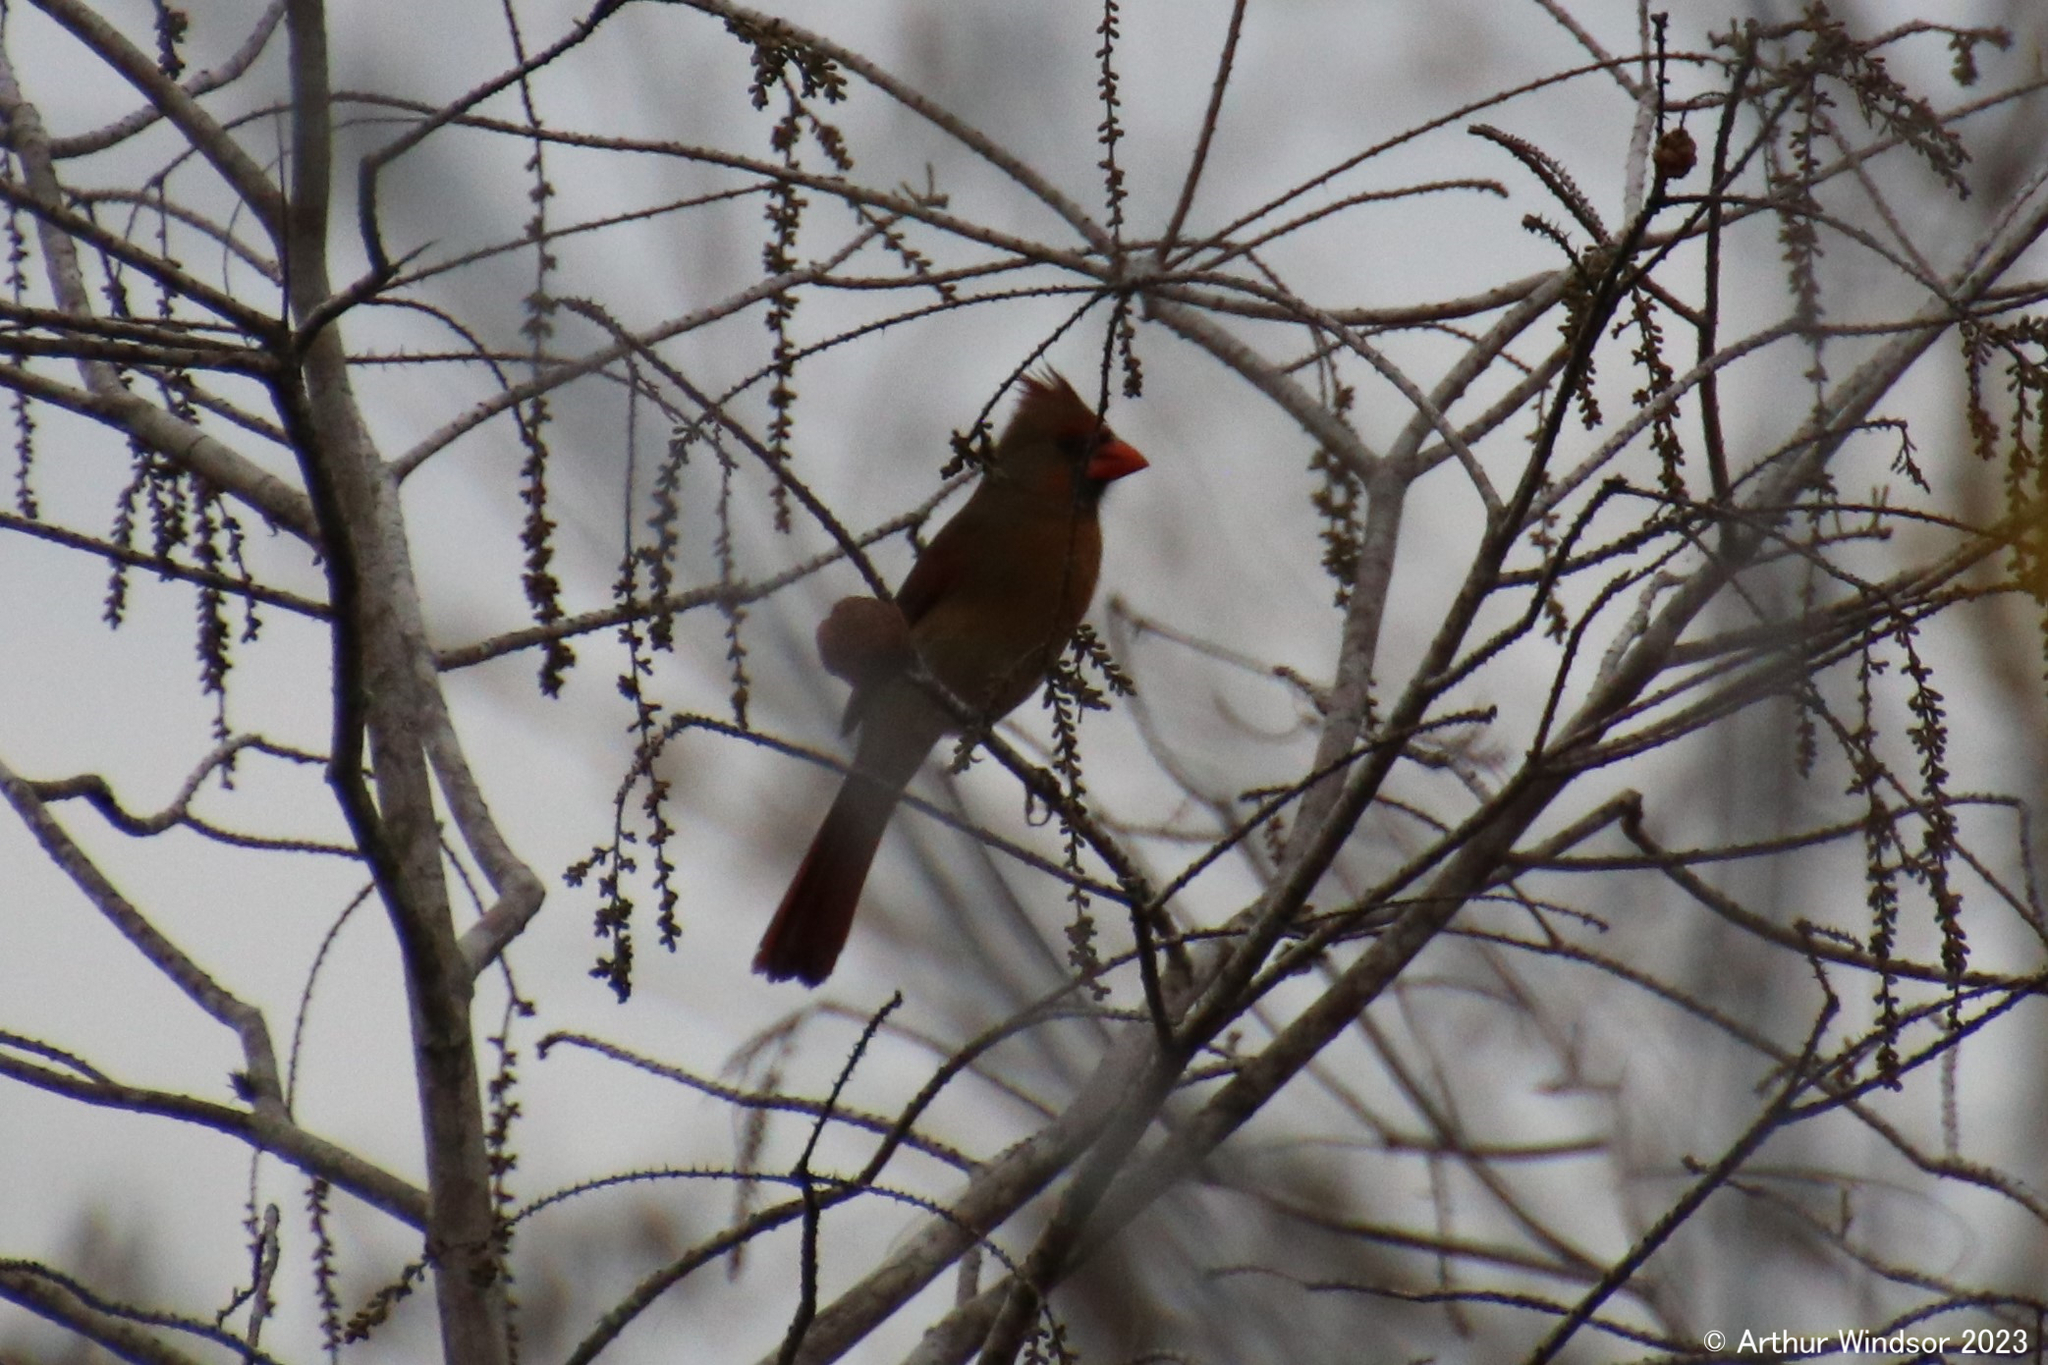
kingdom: Animalia
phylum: Chordata
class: Aves
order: Passeriformes
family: Cardinalidae
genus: Cardinalis
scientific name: Cardinalis cardinalis
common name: Northern cardinal
